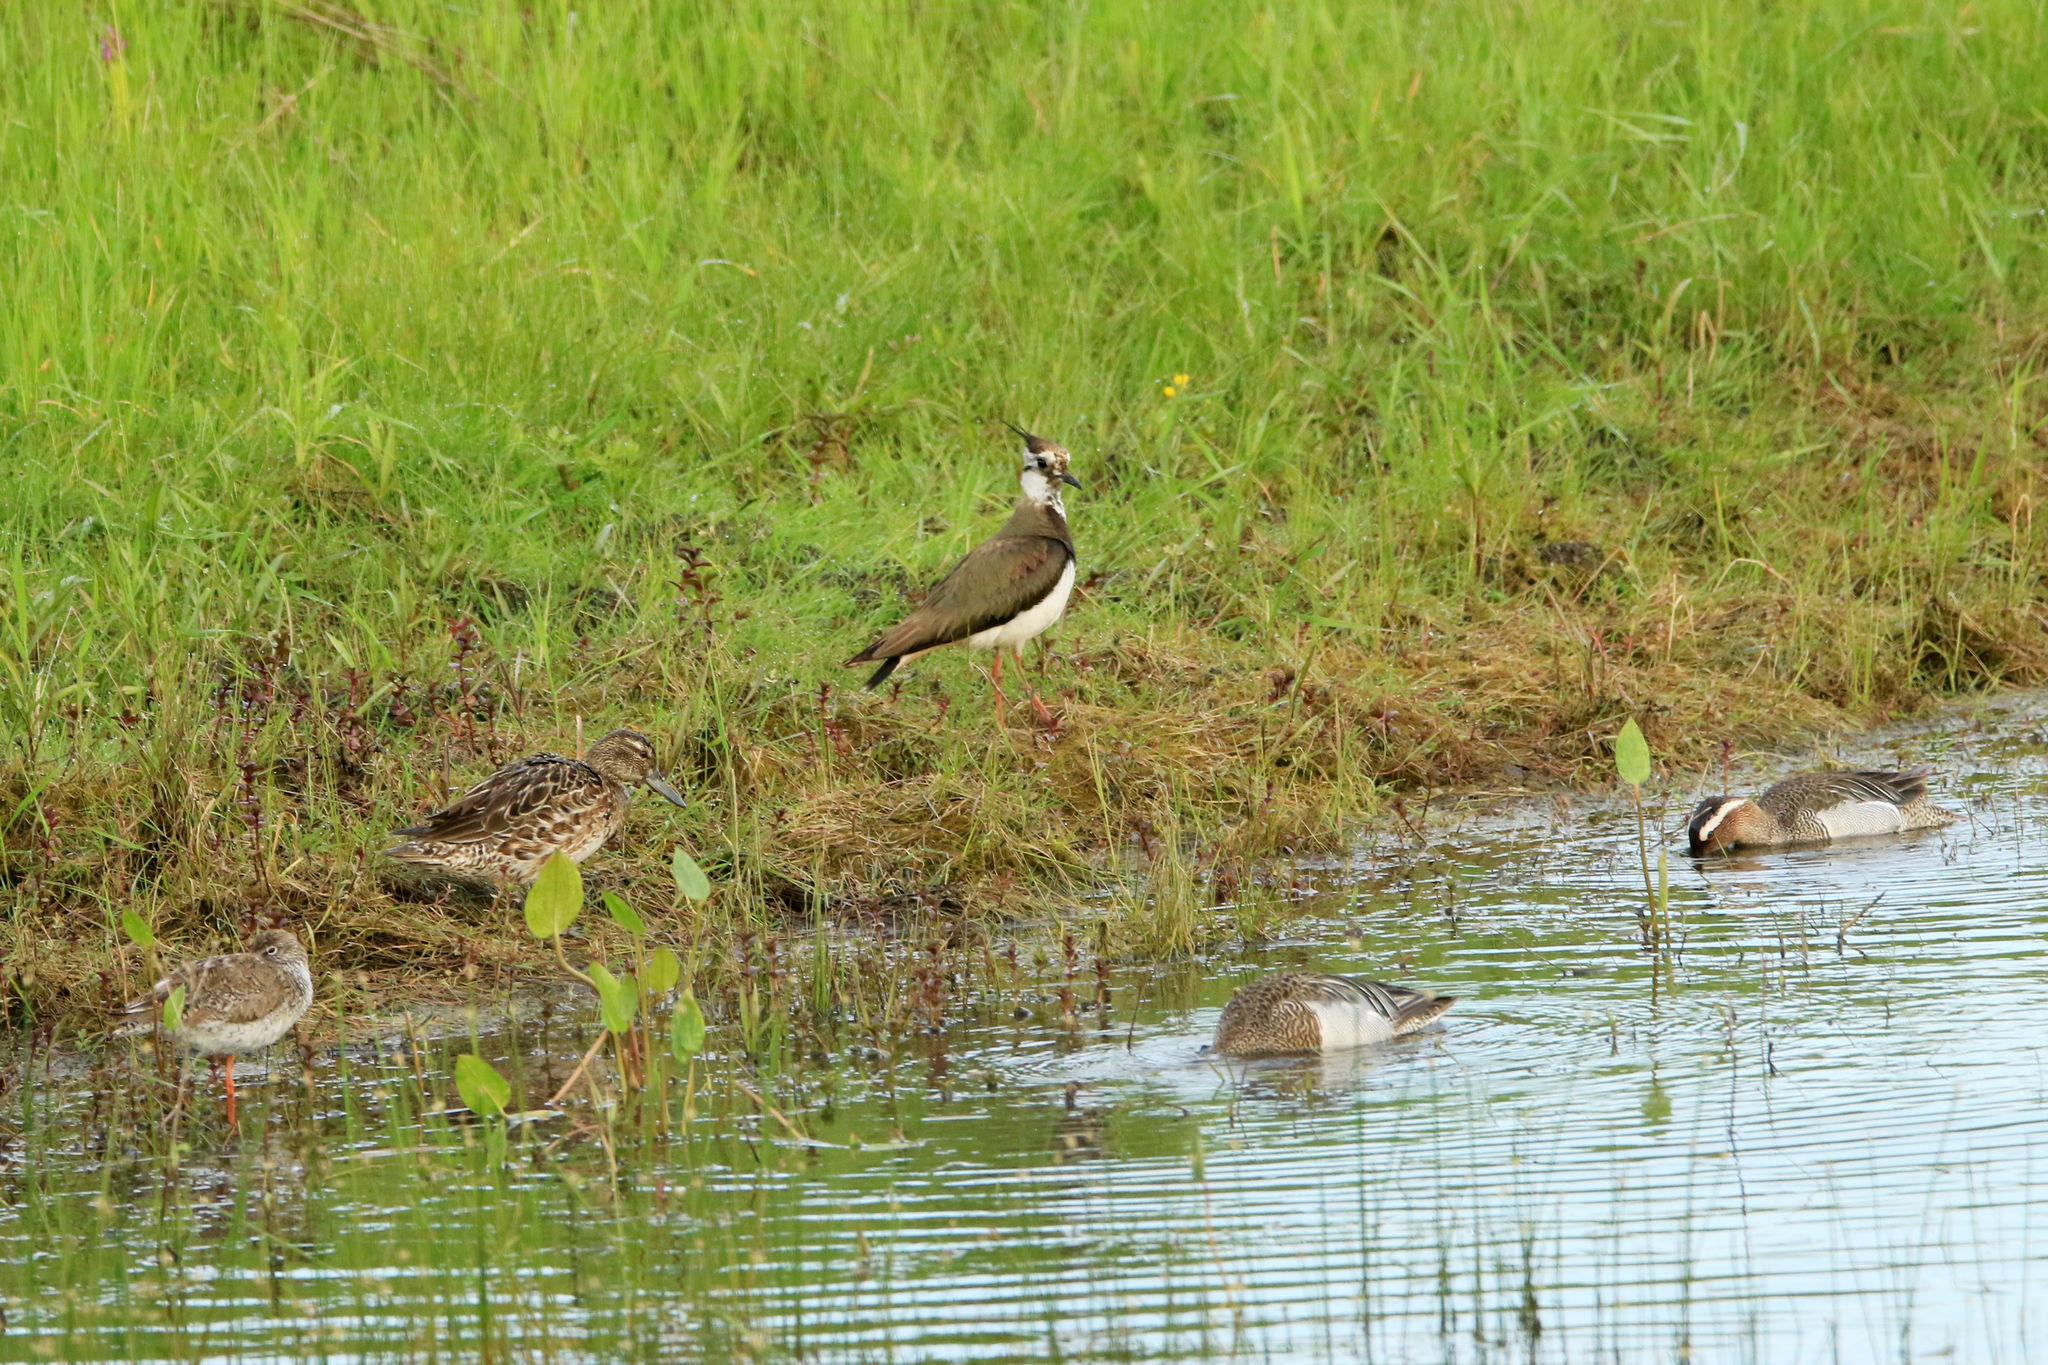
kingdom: Animalia
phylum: Chordata
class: Aves
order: Charadriiformes
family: Charadriidae
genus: Vanellus
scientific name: Vanellus vanellus
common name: Northern lapwing
